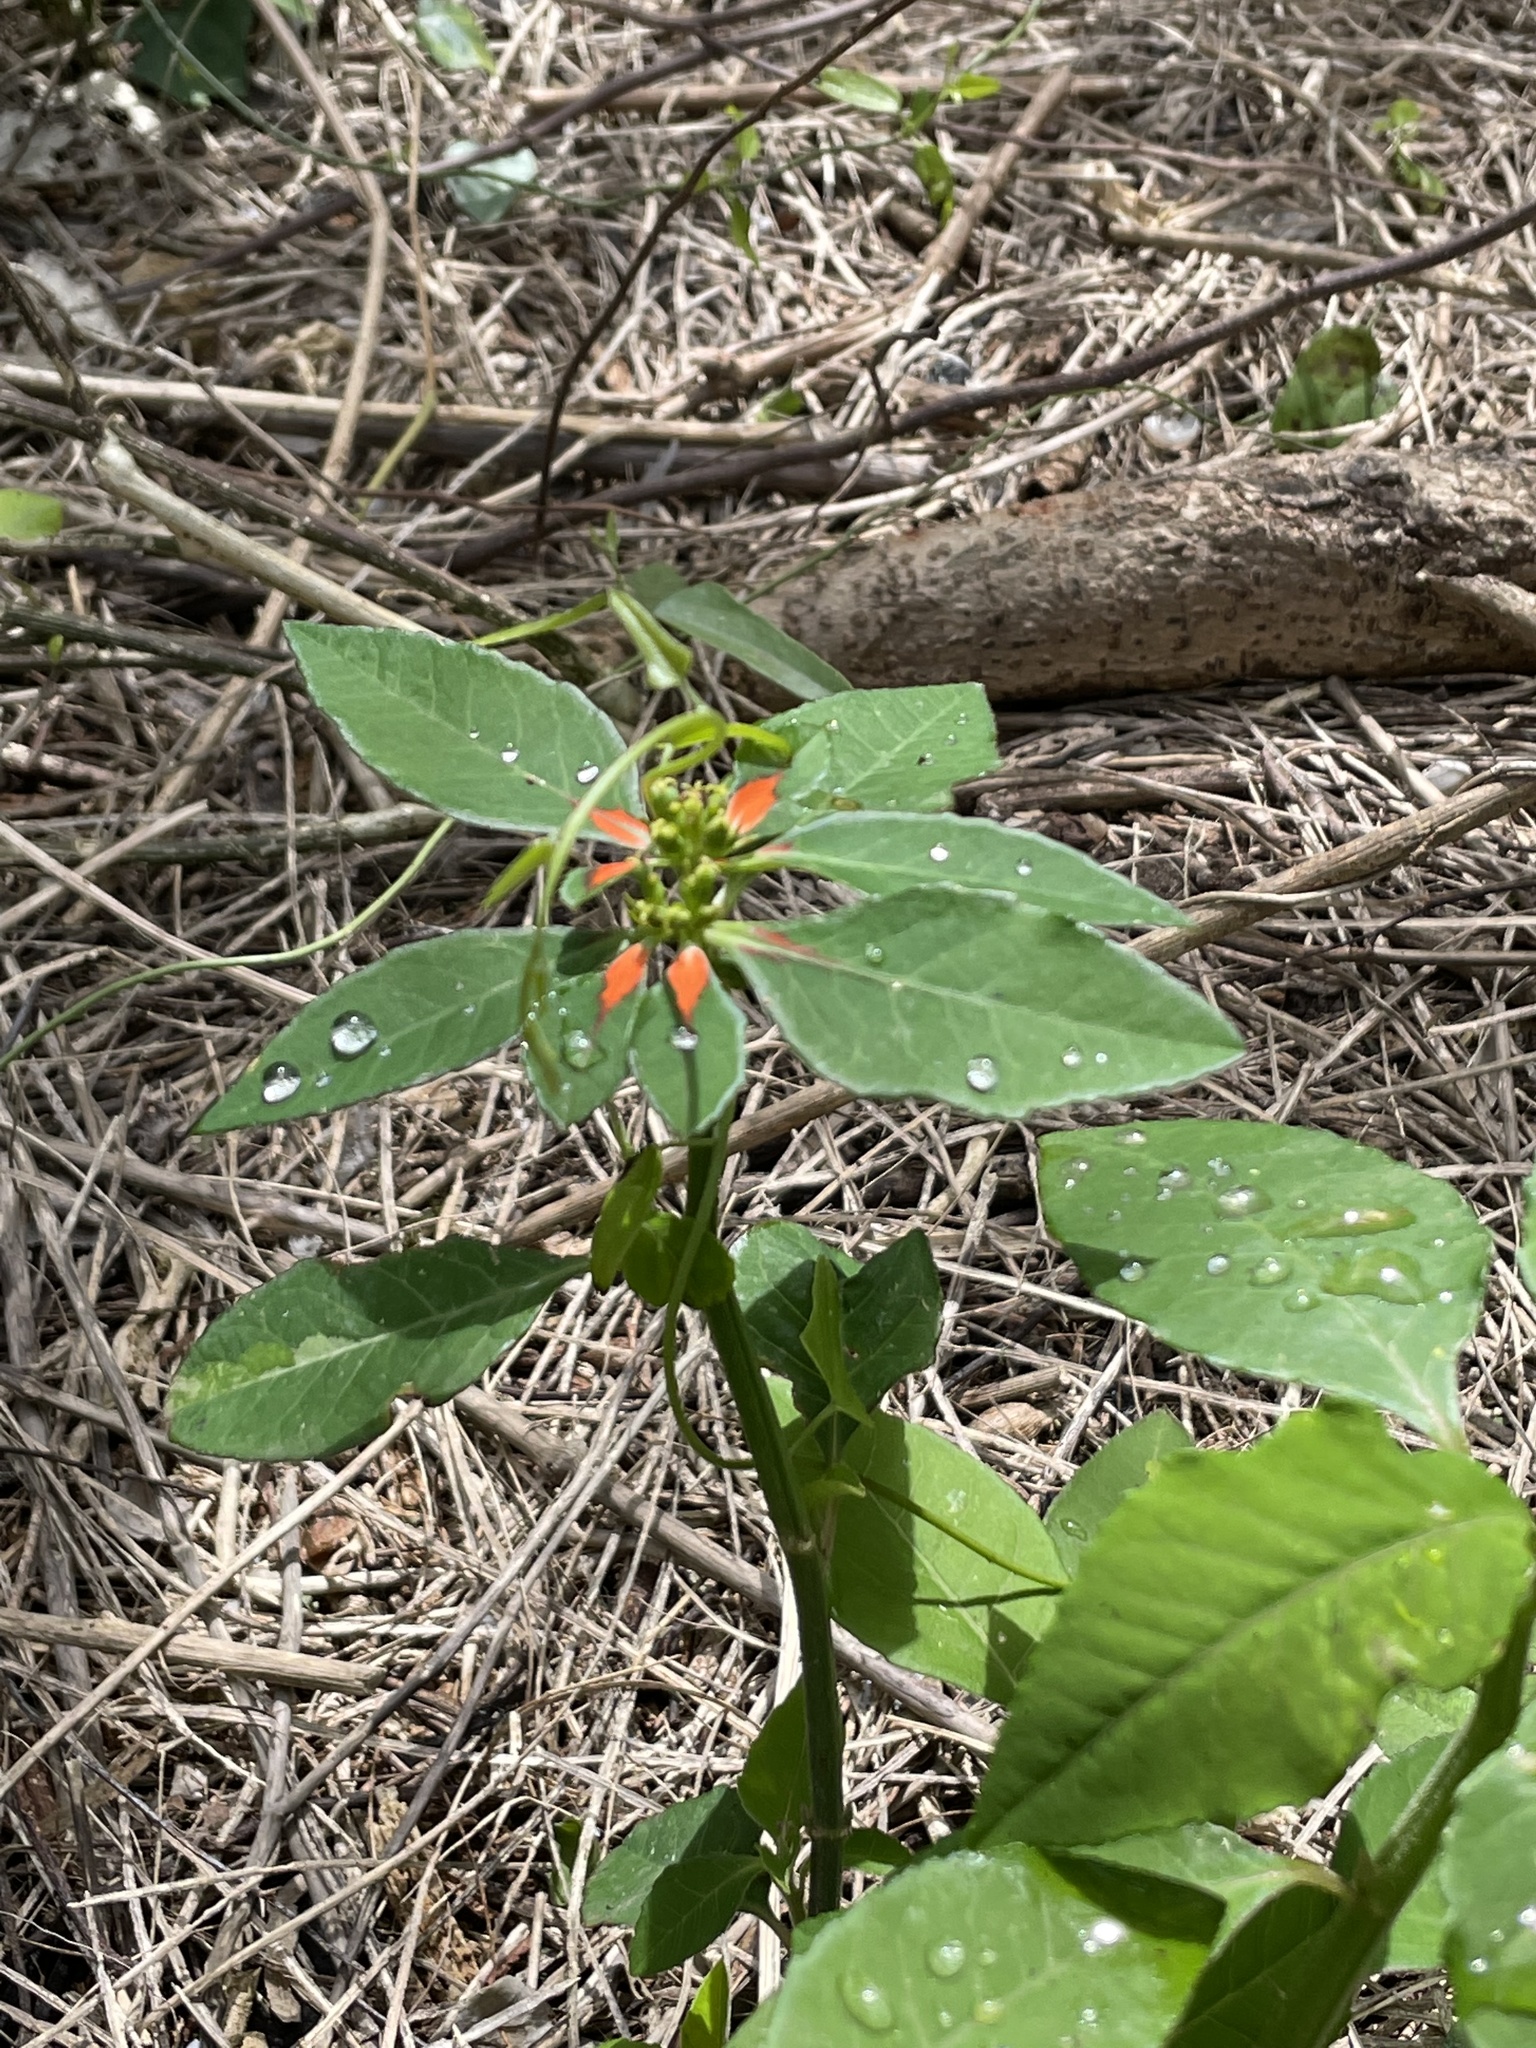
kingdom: Plantae
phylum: Tracheophyta
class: Magnoliopsida
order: Malpighiales
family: Euphorbiaceae
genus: Euphorbia
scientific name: Euphorbia heterophylla
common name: Mexican fireplant
